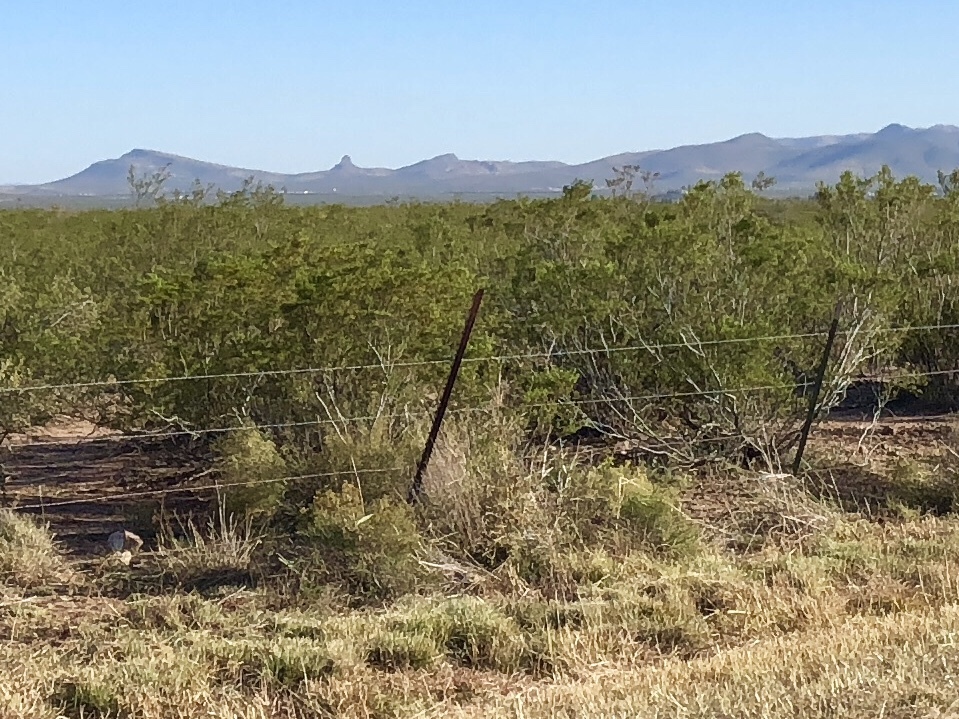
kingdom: Plantae
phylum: Tracheophyta
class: Magnoliopsida
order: Zygophyllales
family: Zygophyllaceae
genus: Larrea
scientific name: Larrea tridentata
